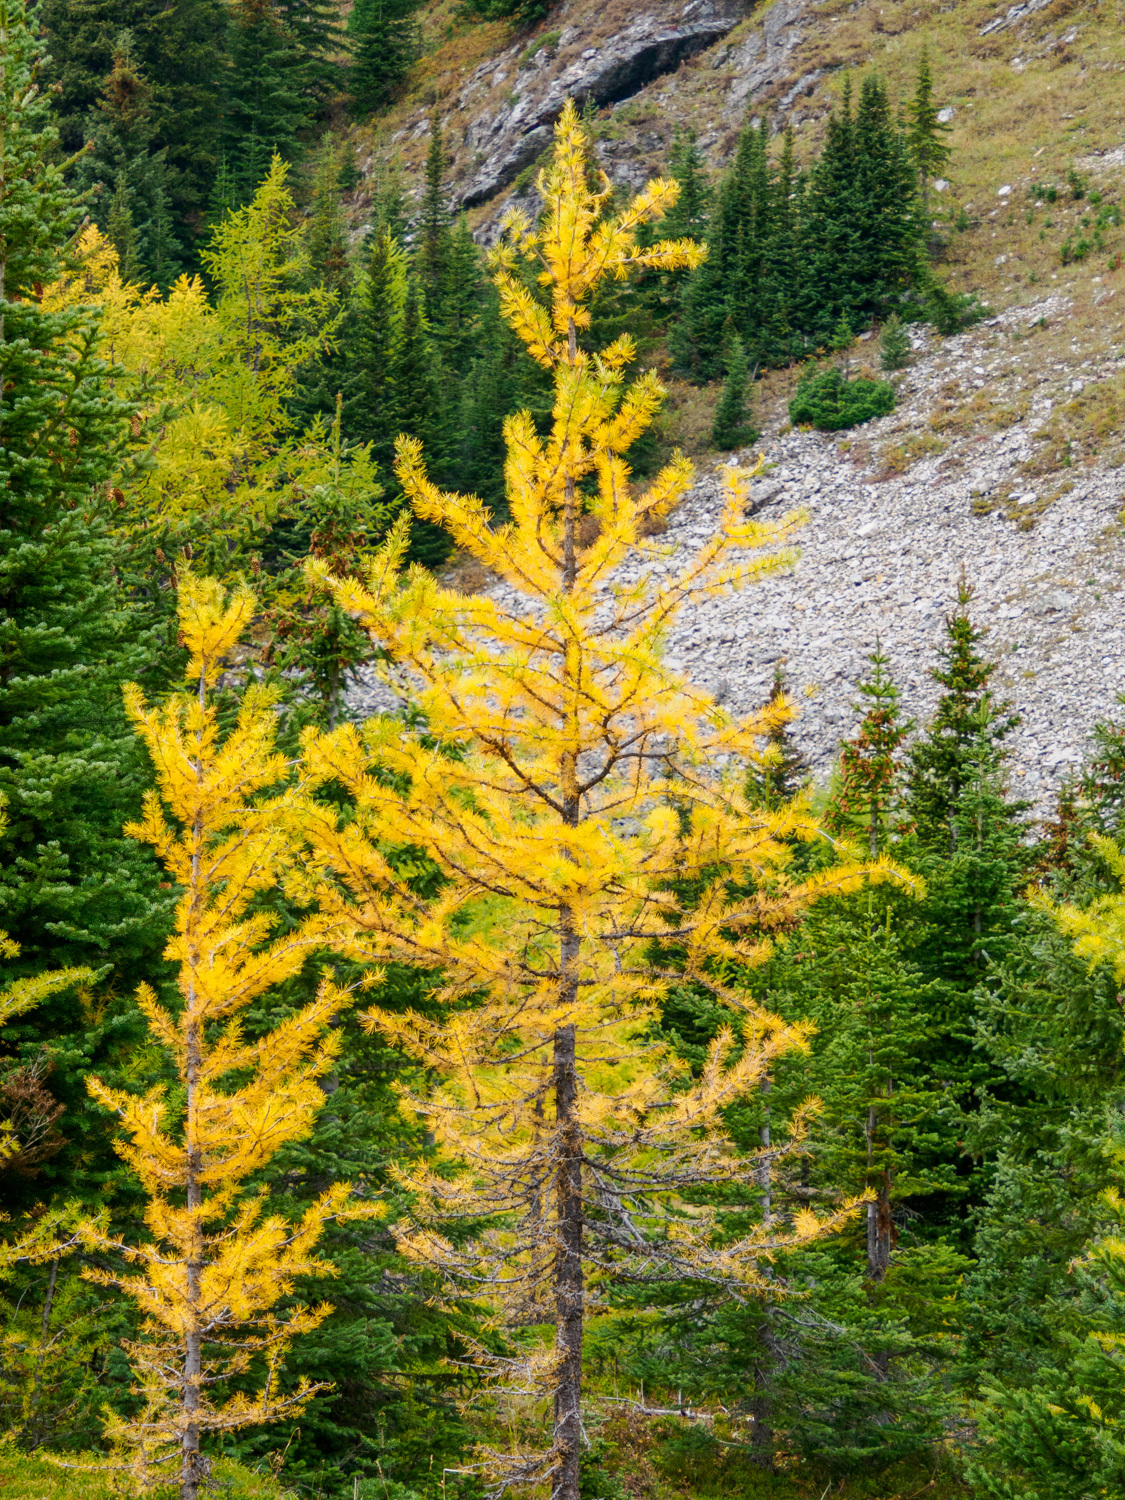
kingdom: Plantae
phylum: Tracheophyta
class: Pinopsida
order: Pinales
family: Pinaceae
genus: Larix
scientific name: Larix lyallii
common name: Alpine larch
